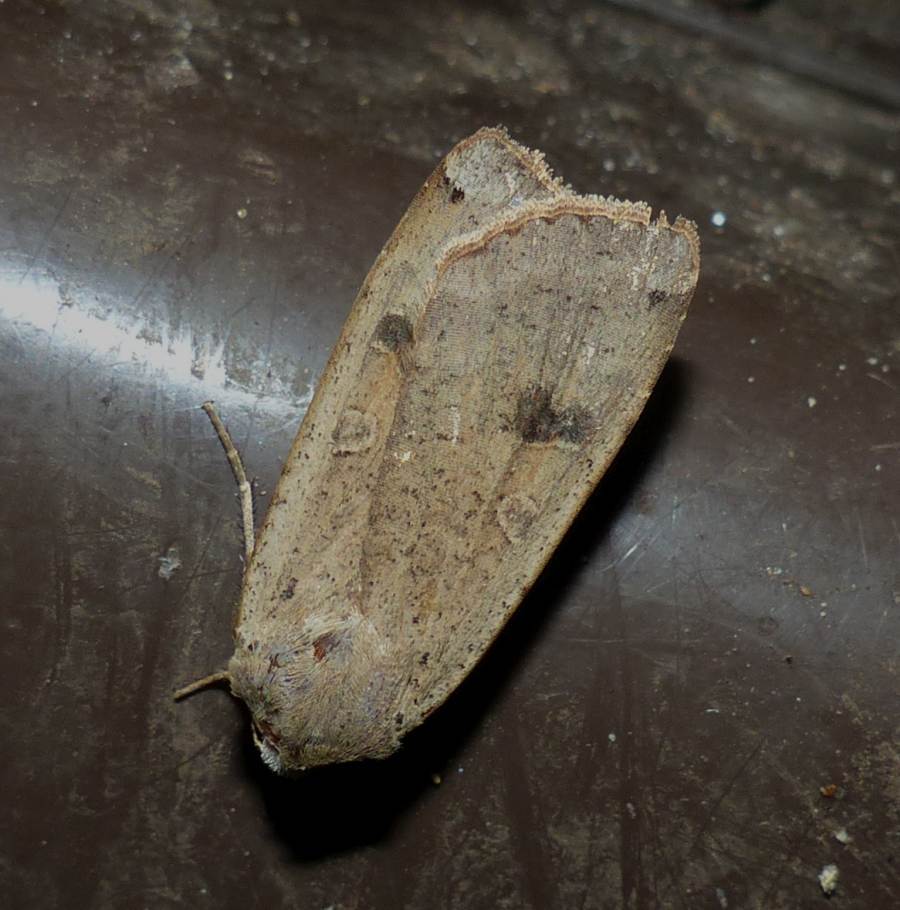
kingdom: Animalia
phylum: Arthropoda
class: Insecta
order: Lepidoptera
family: Noctuidae
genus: Noctua
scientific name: Noctua pronuba
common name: Large yellow underwing
